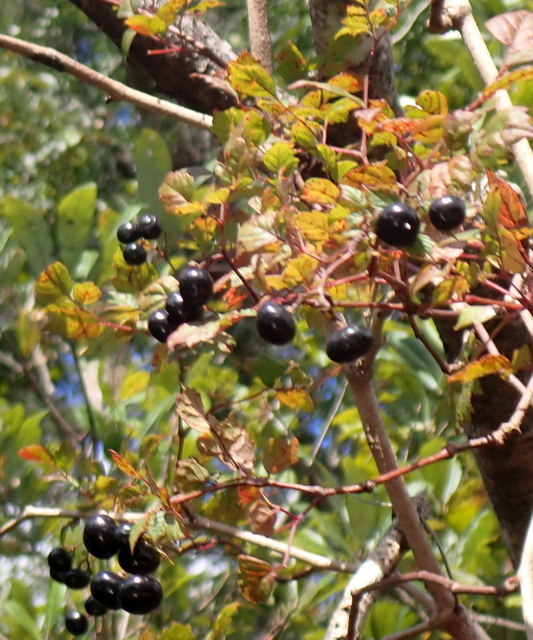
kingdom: Plantae
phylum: Tracheophyta
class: Magnoliopsida
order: Vitales
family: Vitaceae
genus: Nekemias
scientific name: Nekemias arborea
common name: Peppervine
